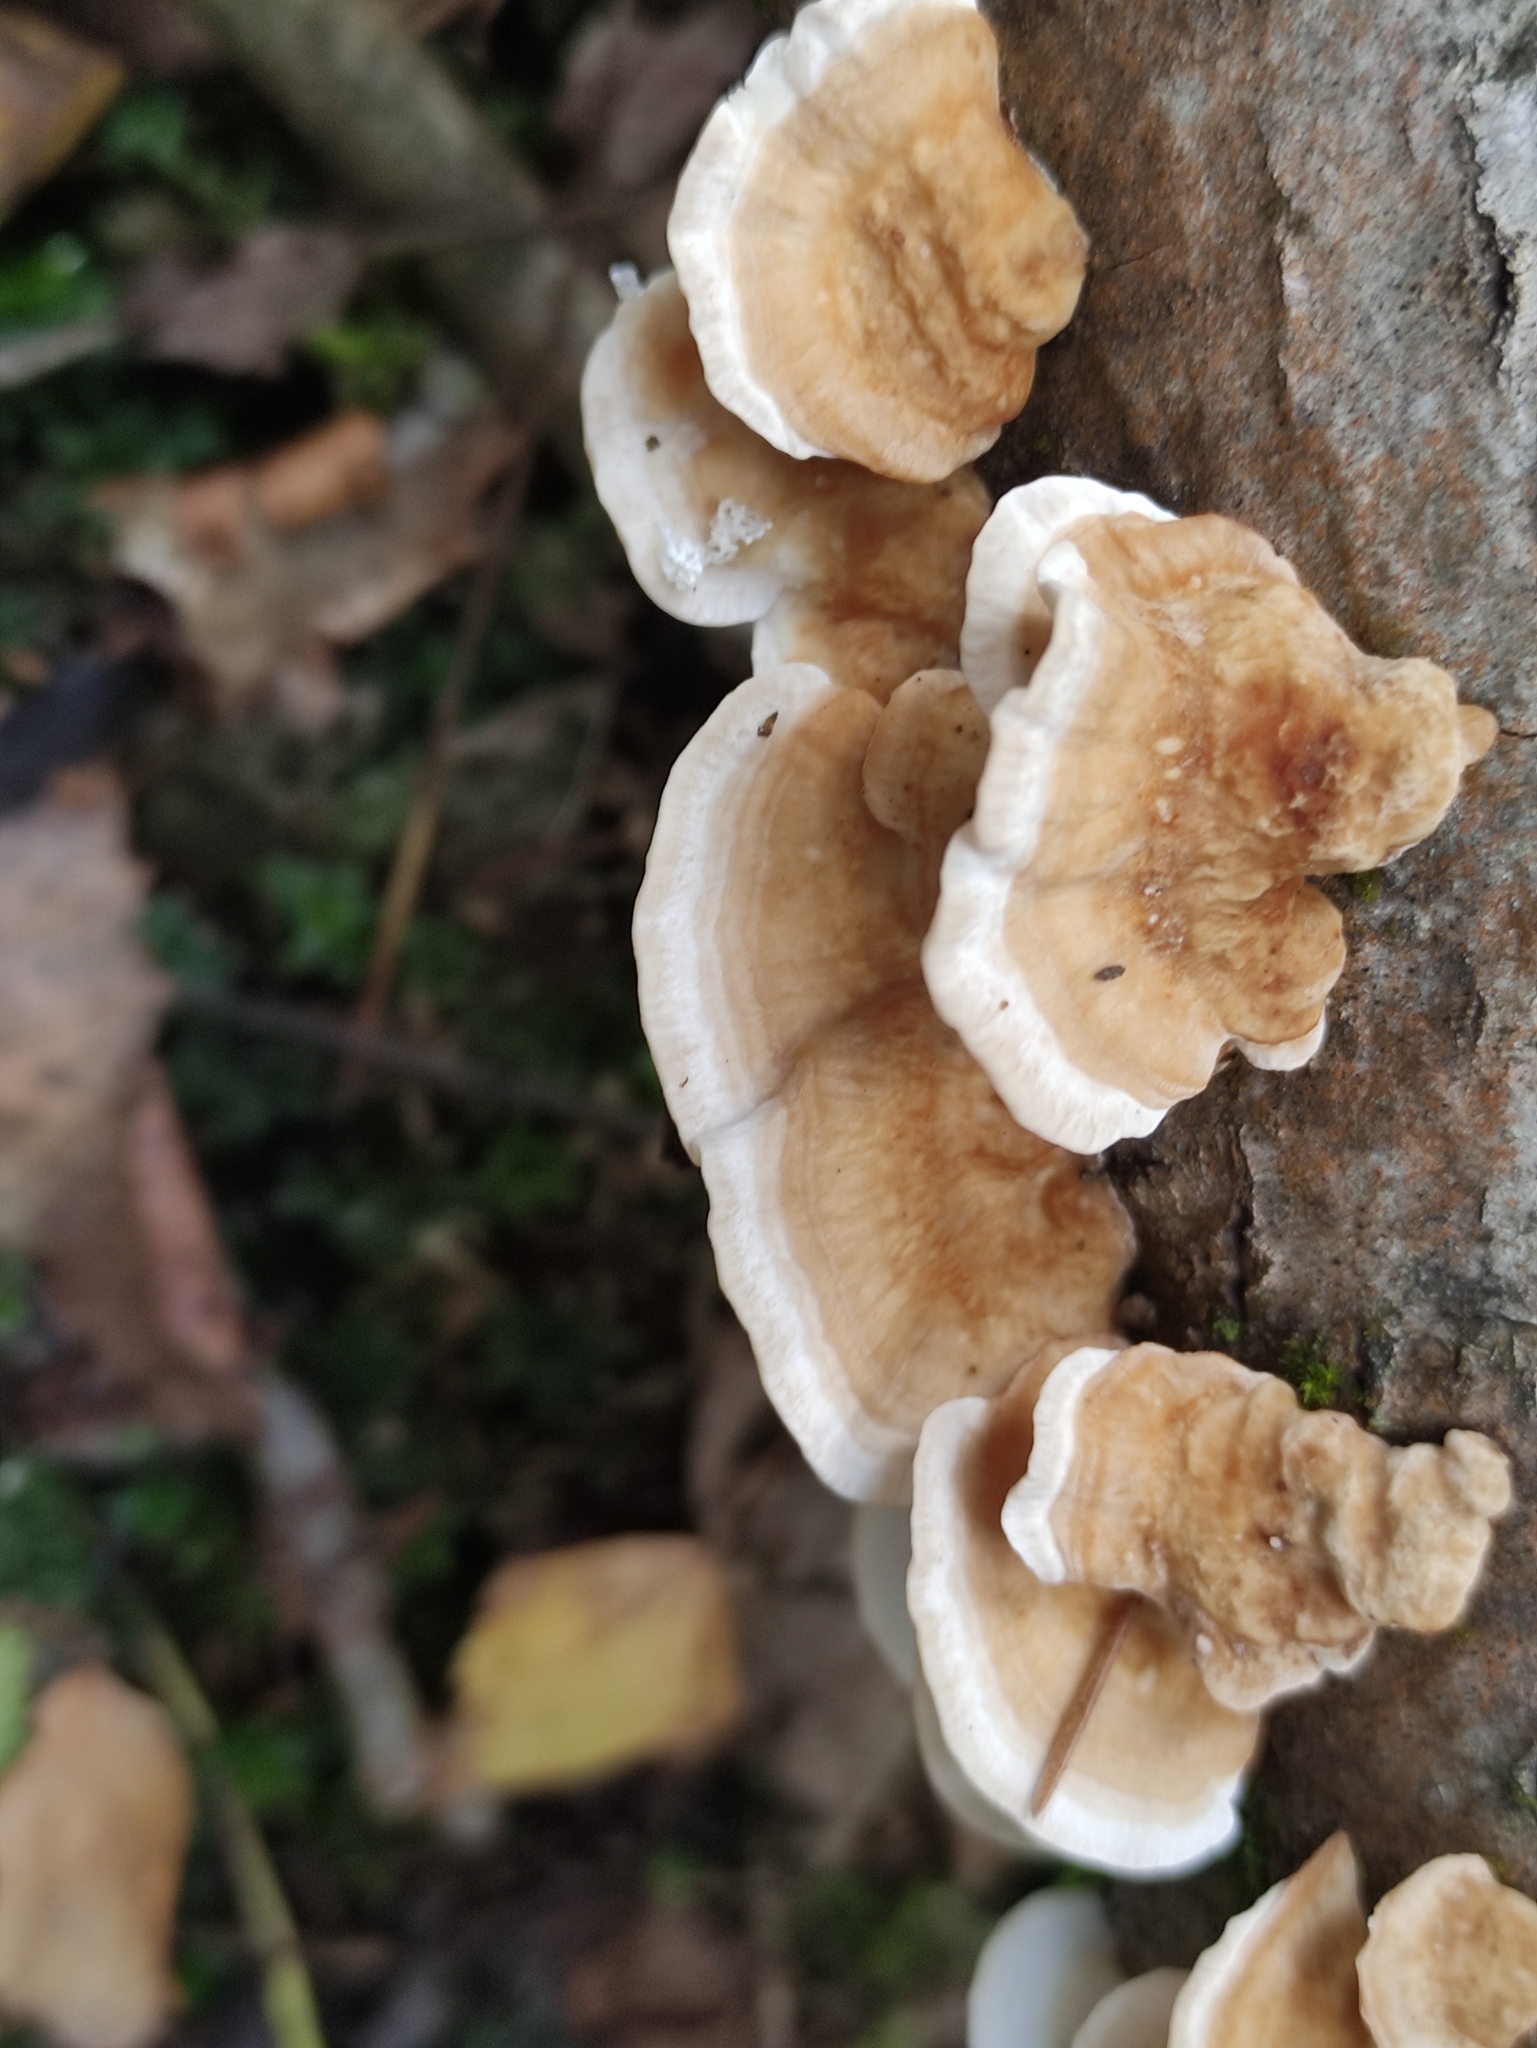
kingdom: Fungi
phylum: Basidiomycota
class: Agaricomycetes
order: Polyporales
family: Polyporaceae
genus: Trametes
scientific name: Trametes ochracea
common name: Ochre bracket
